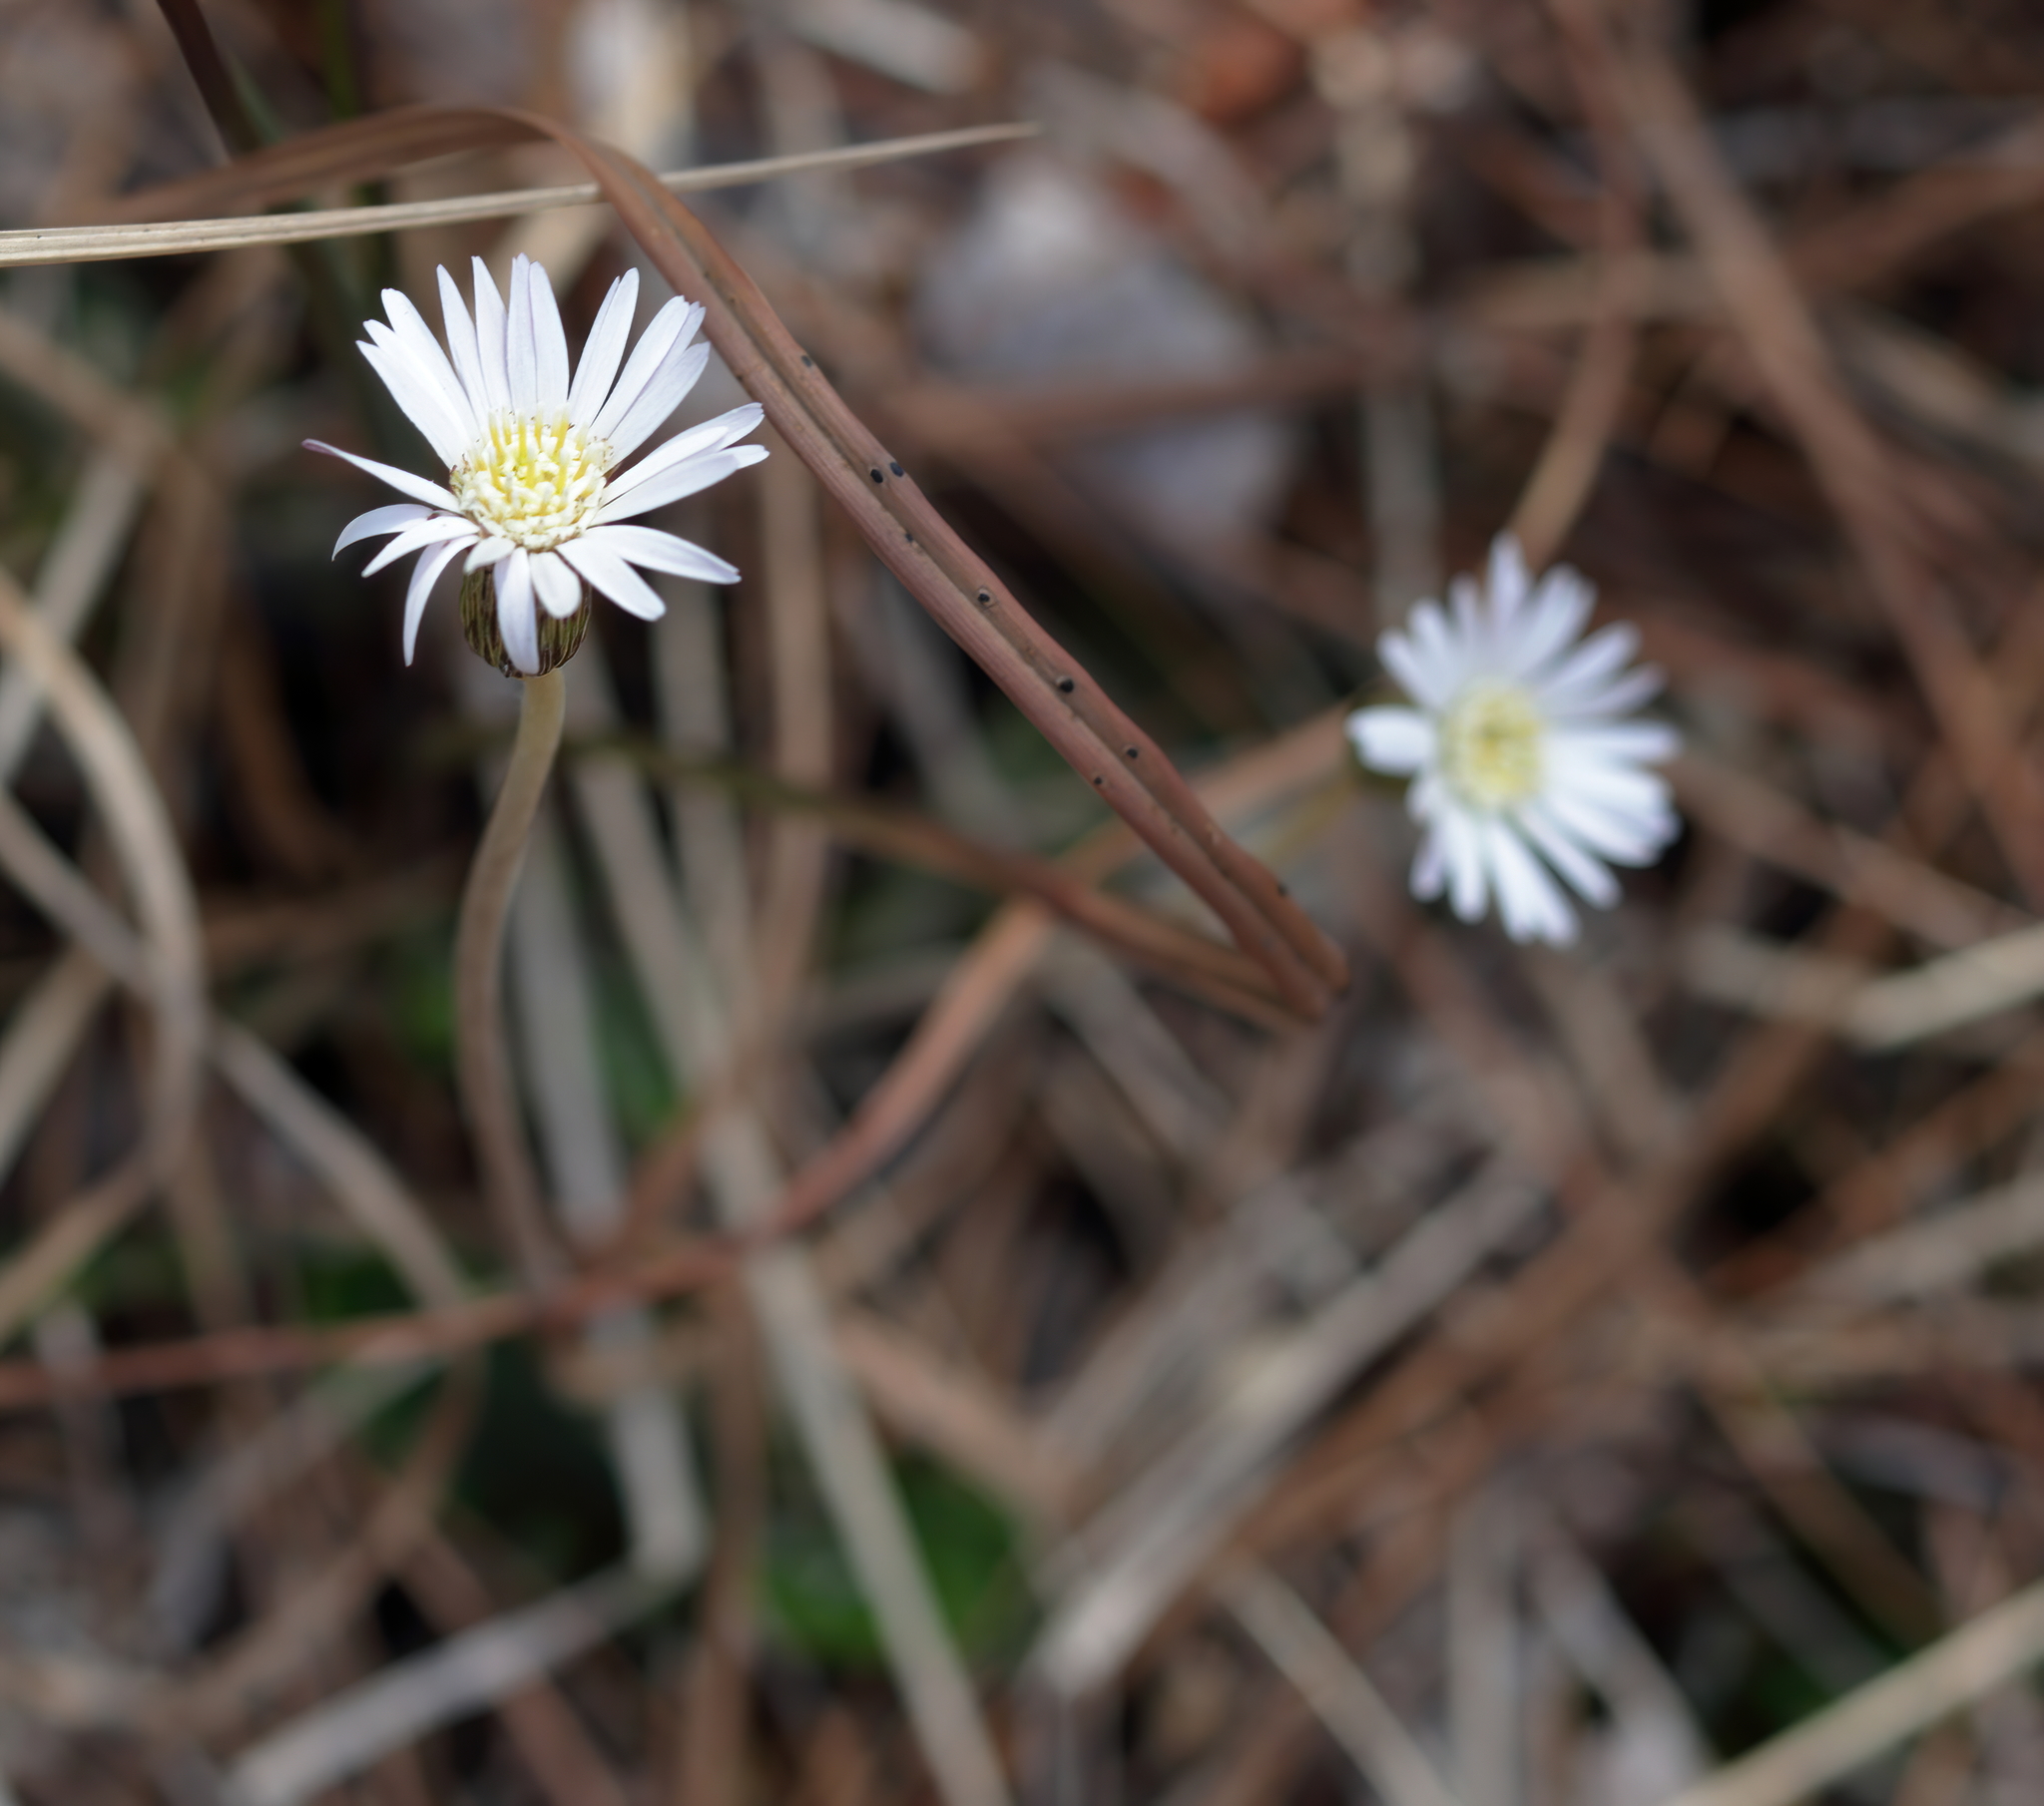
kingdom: Plantae
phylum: Tracheophyta
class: Magnoliopsida
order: Asterales
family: Asteraceae
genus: Chaptalia
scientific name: Chaptalia tomentosa
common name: Woolly sunbonnet
